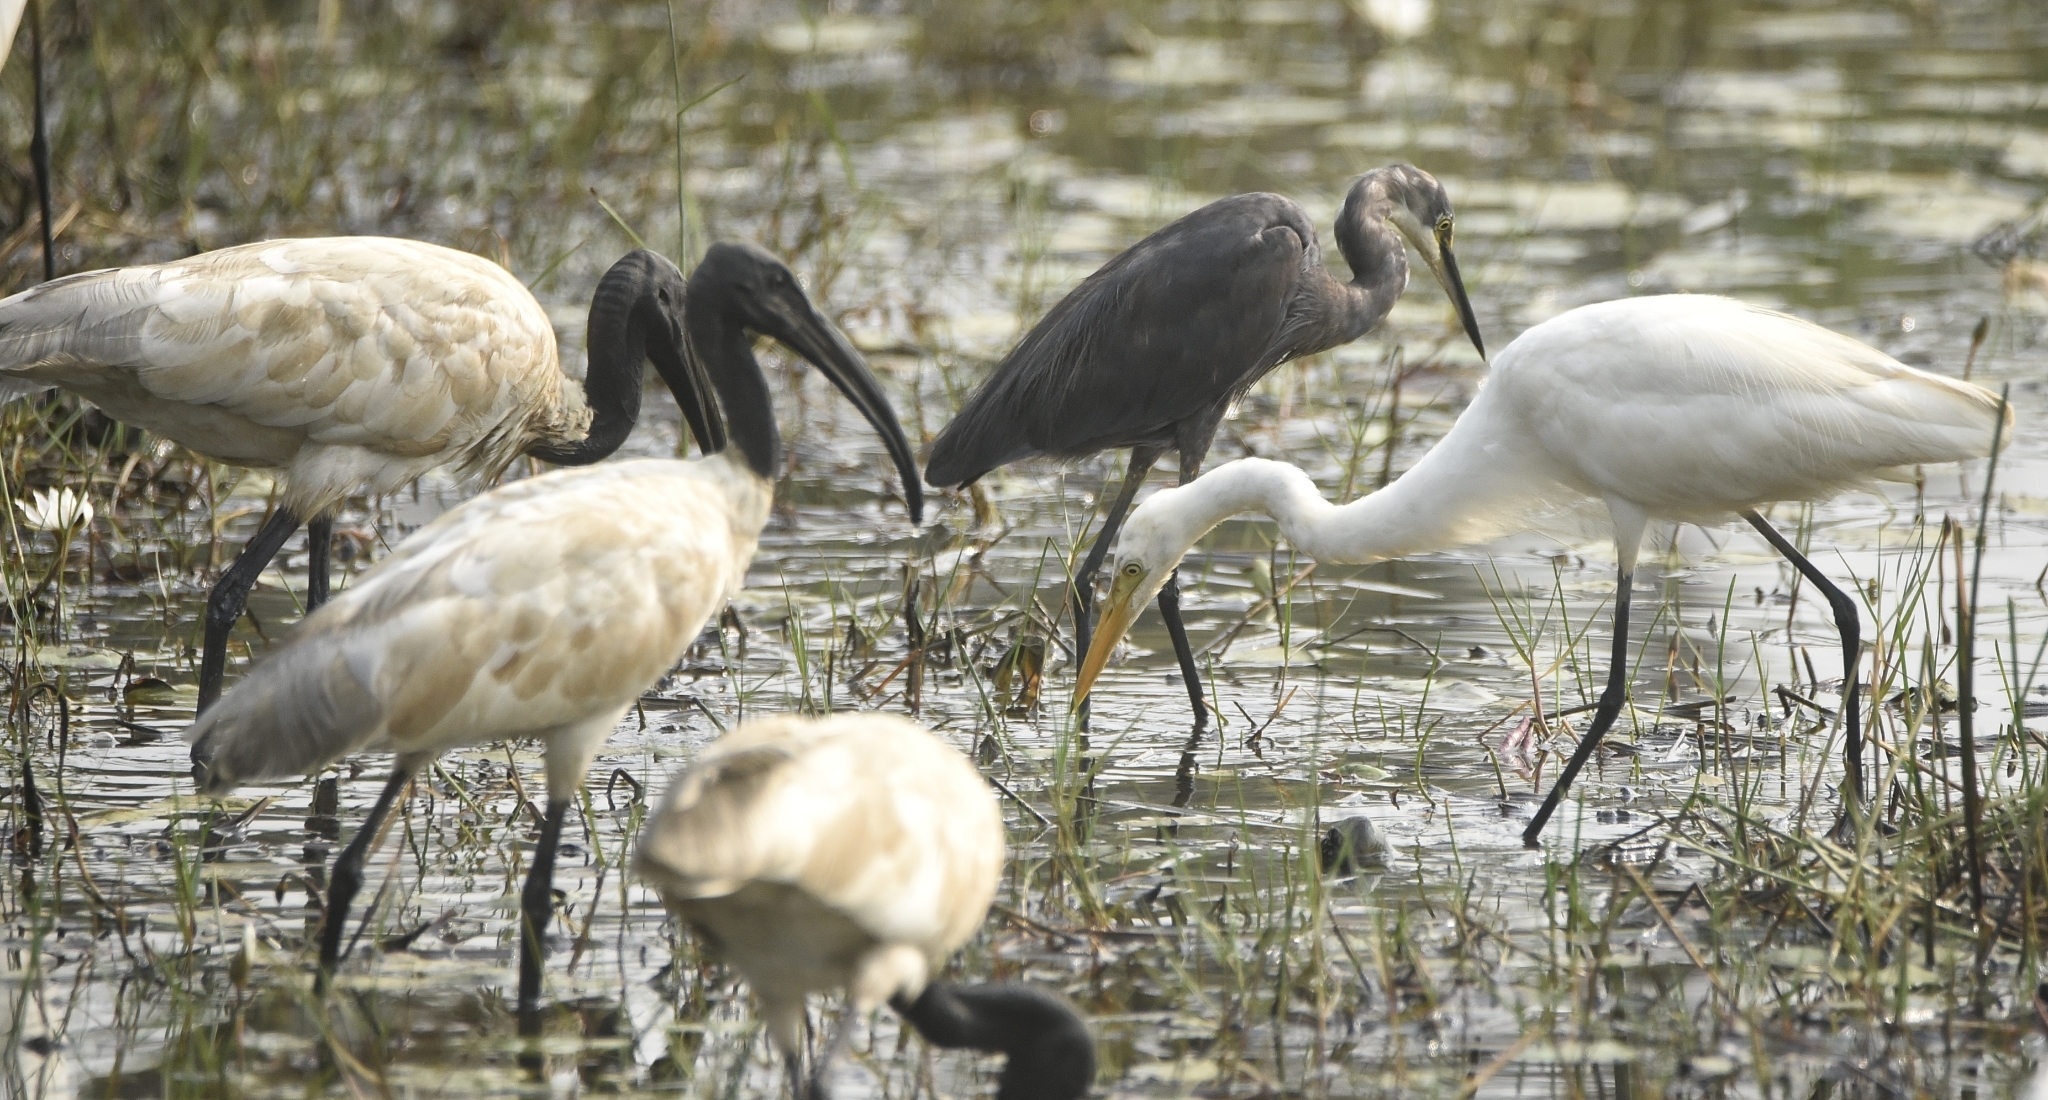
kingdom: Animalia
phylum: Chordata
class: Aves
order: Pelecaniformes
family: Threskiornithidae
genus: Threskiornis
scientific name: Threskiornis melanocephalus
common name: Black-headed ibis
